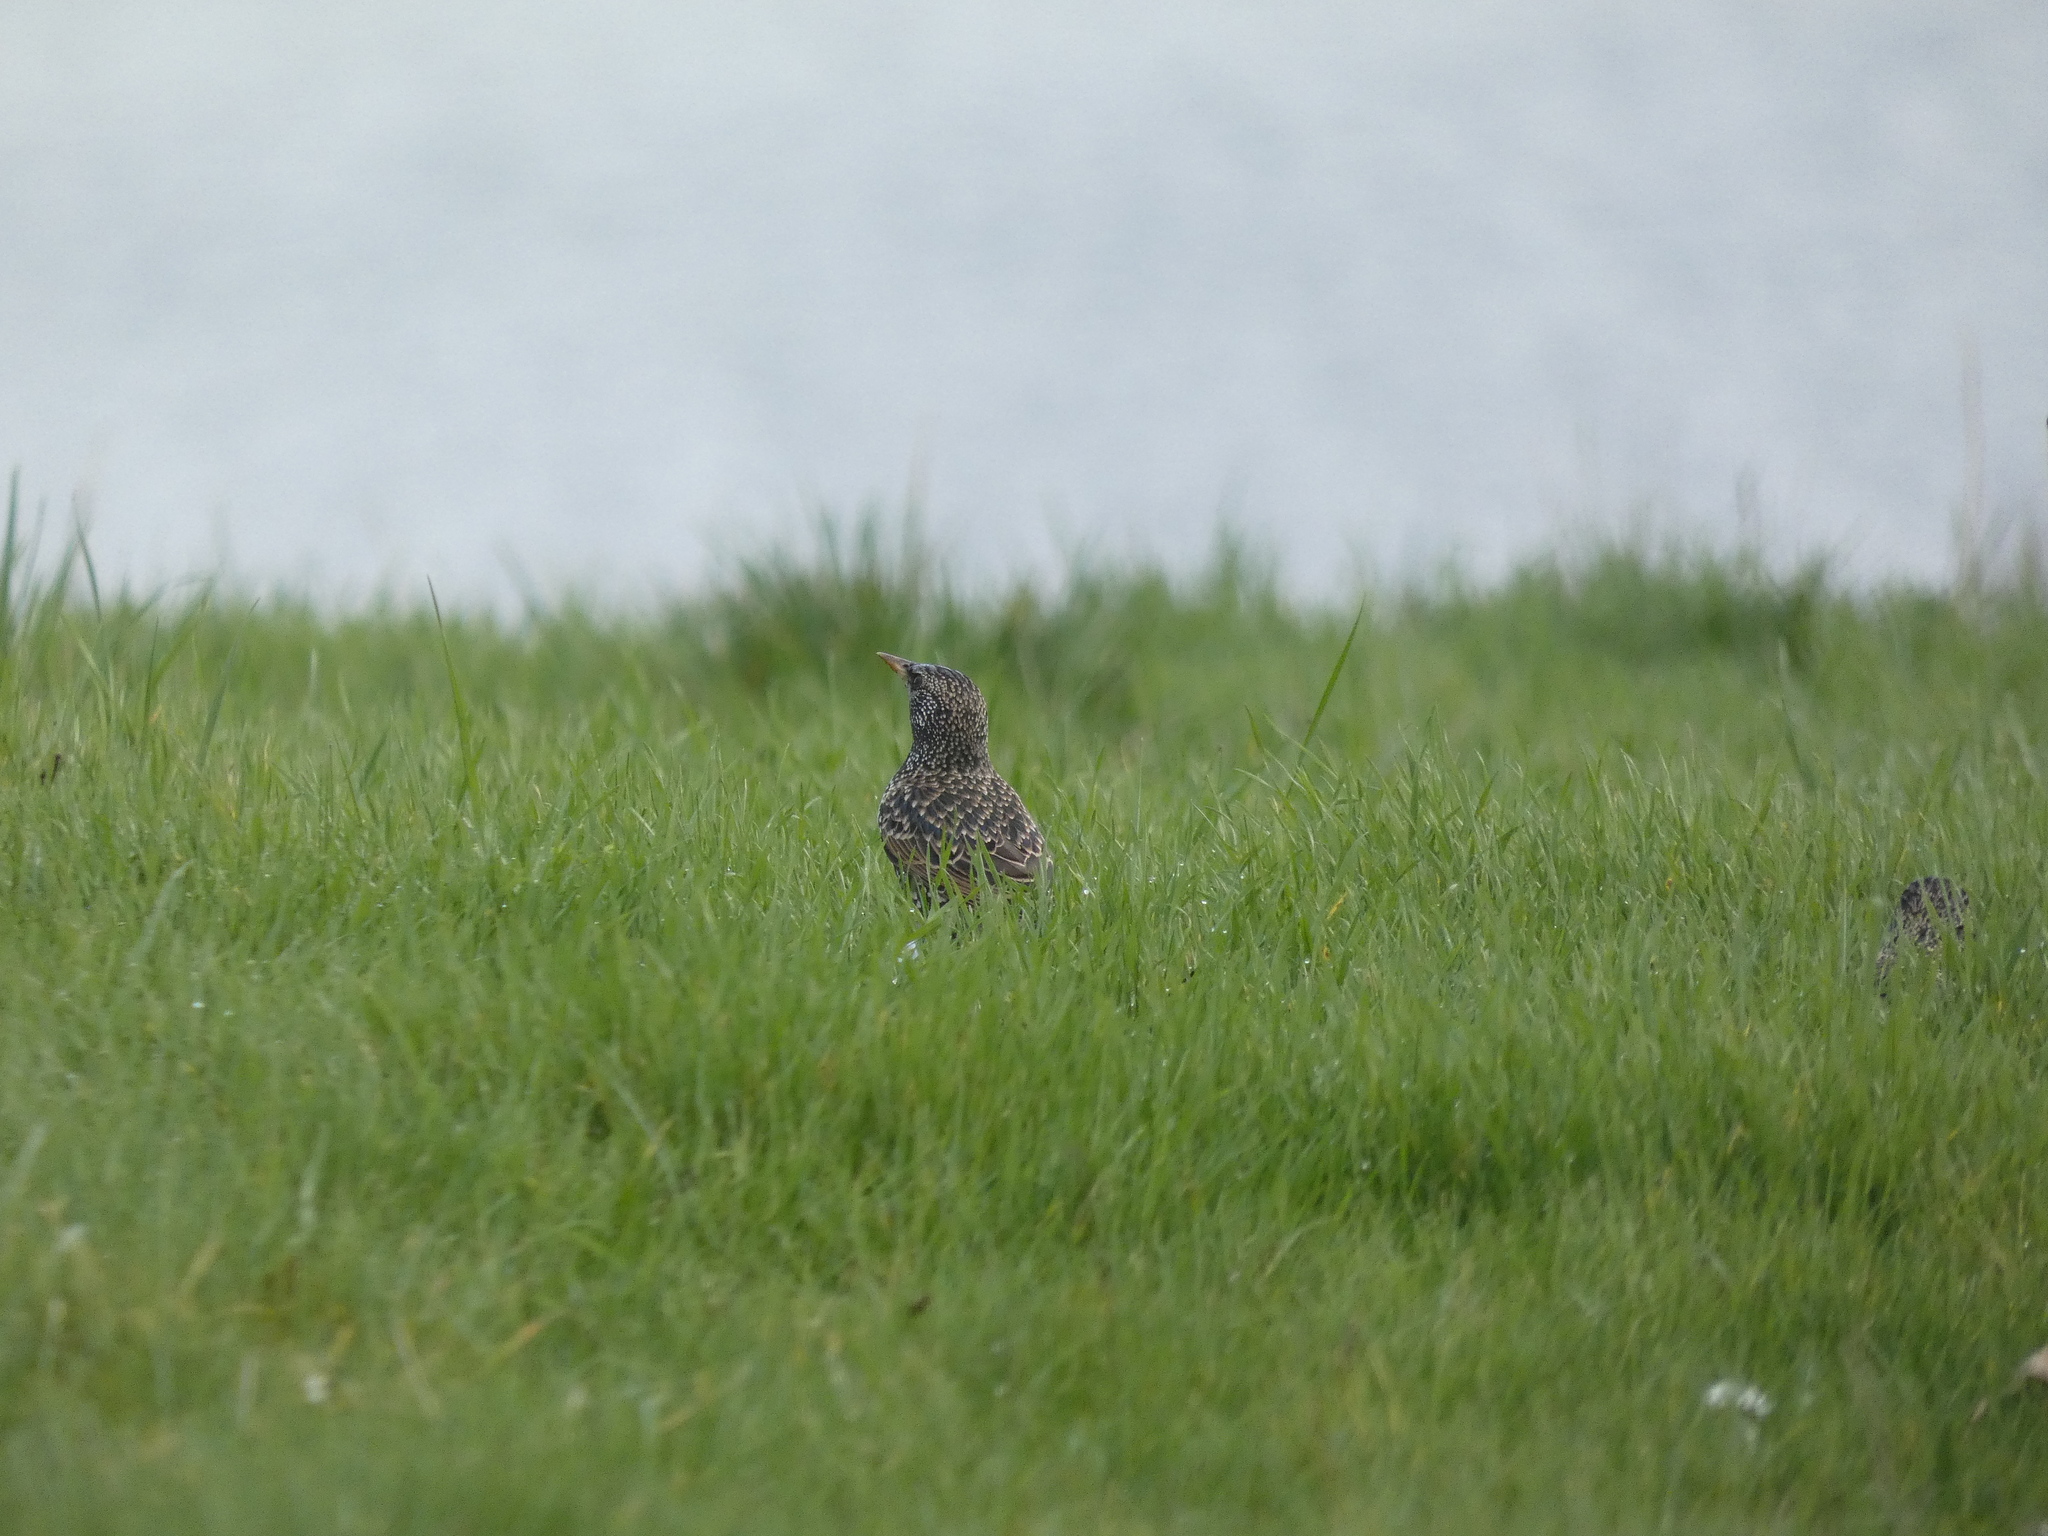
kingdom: Animalia
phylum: Chordata
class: Aves
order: Passeriformes
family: Sturnidae
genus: Sturnus
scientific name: Sturnus vulgaris
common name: Common starling
